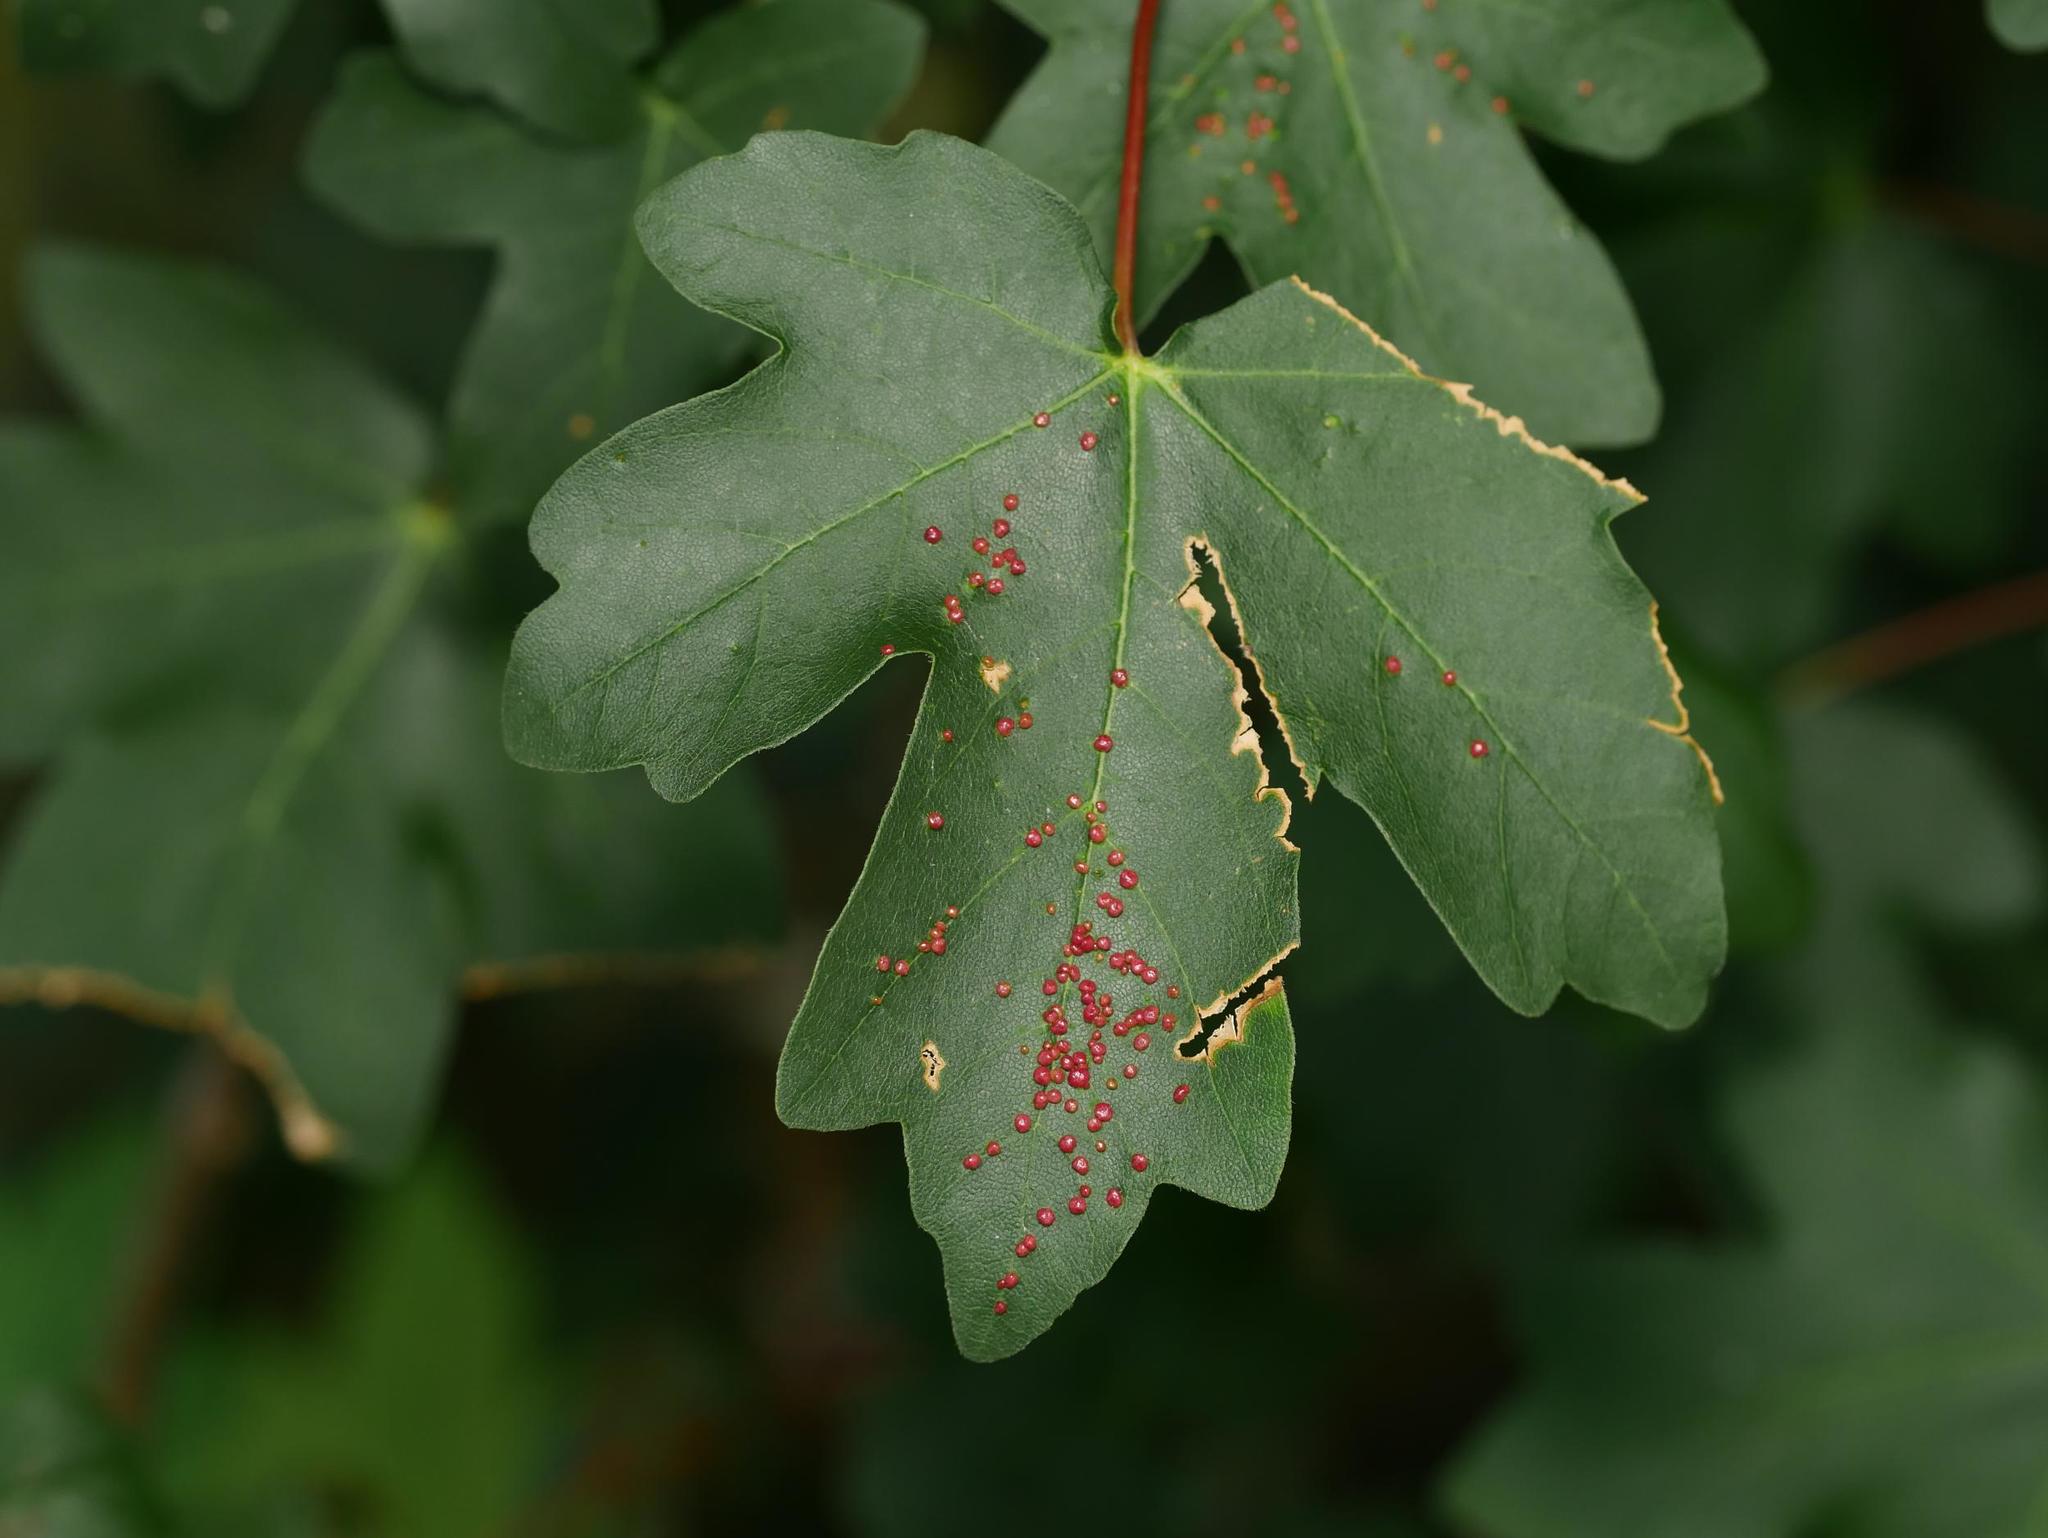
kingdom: Plantae
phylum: Tracheophyta
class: Magnoliopsida
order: Sapindales
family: Sapindaceae
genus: Acer
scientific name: Acer campestre
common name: Field maple
